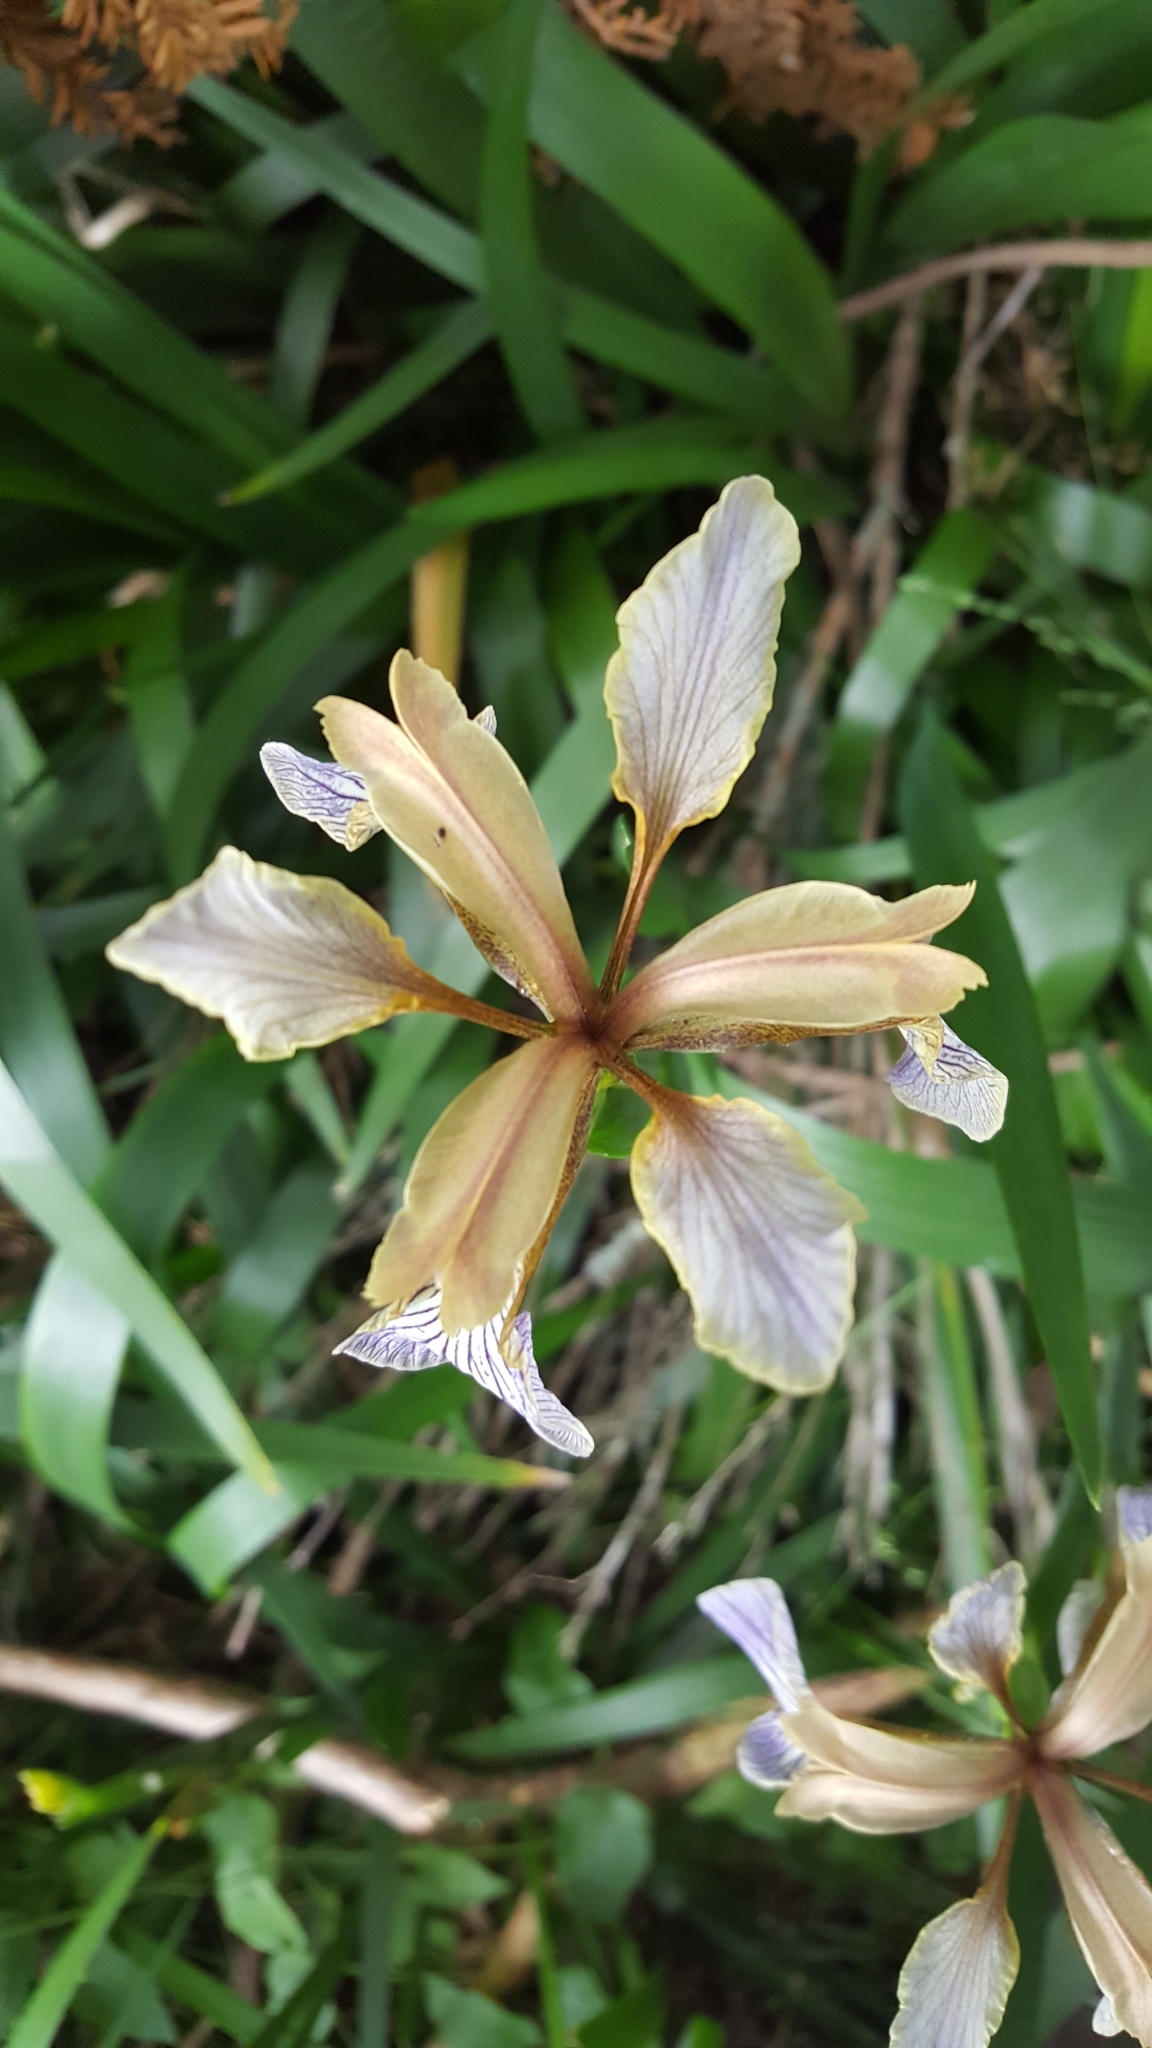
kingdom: Plantae
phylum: Tracheophyta
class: Liliopsida
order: Asparagales
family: Iridaceae
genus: Iris
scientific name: Iris foetidissima
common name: Stinking iris
